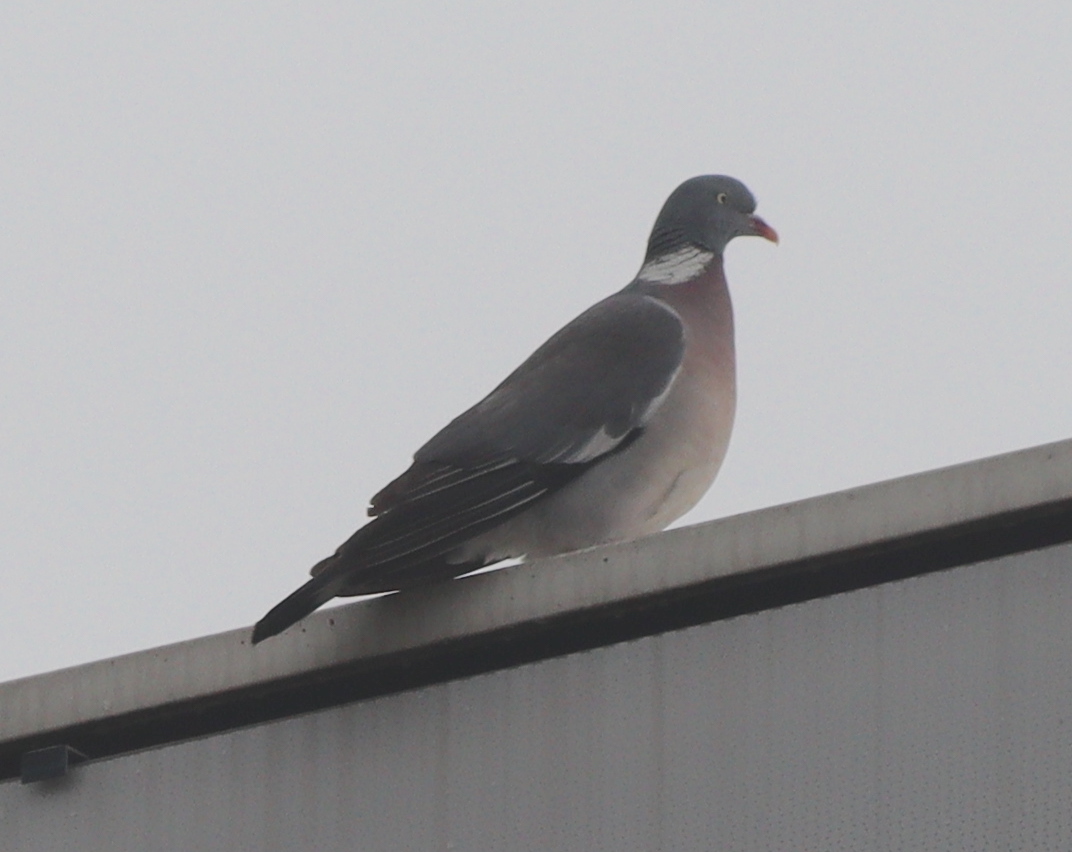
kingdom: Animalia
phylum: Chordata
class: Aves
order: Columbiformes
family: Columbidae
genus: Columba
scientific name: Columba palumbus
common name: Common wood pigeon
